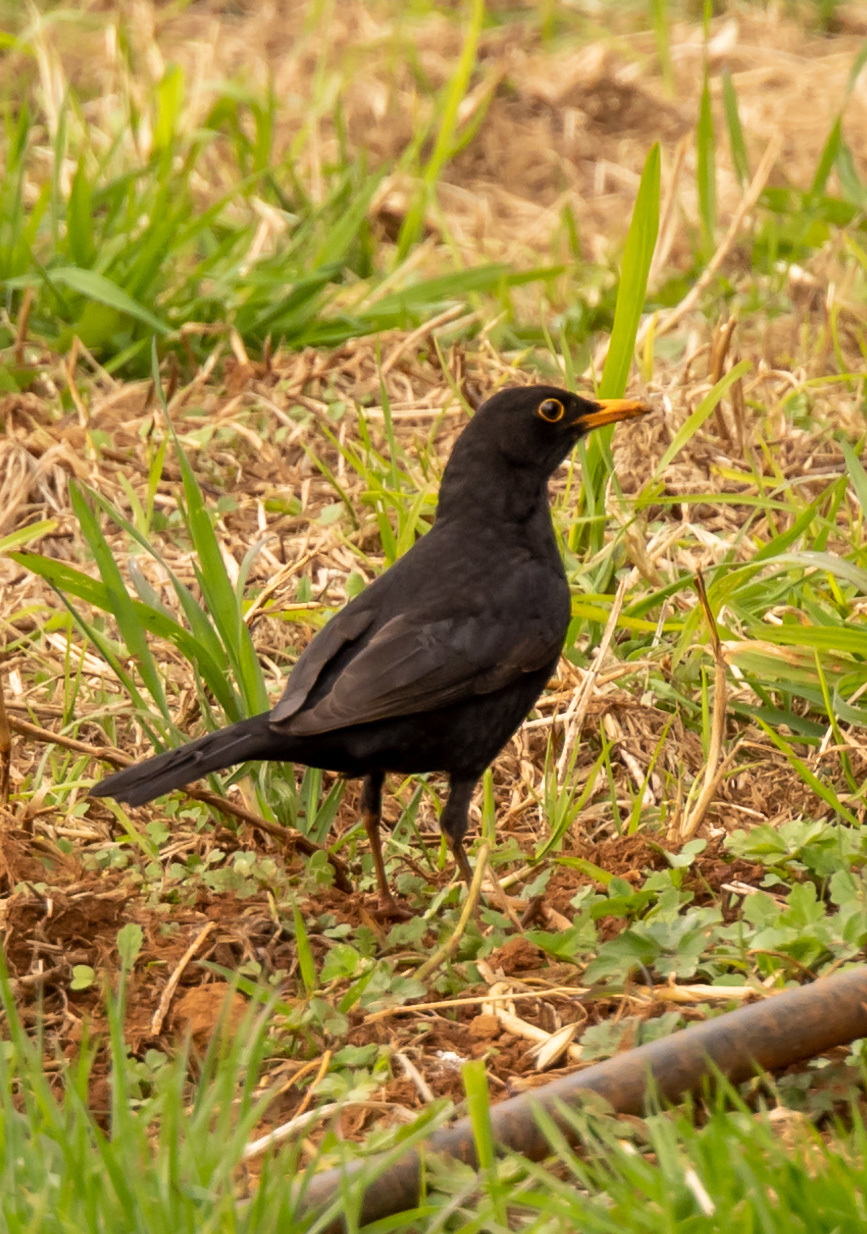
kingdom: Animalia
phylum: Chordata
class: Aves
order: Passeriformes
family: Turdidae
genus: Turdus
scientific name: Turdus merula
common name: Common blackbird
